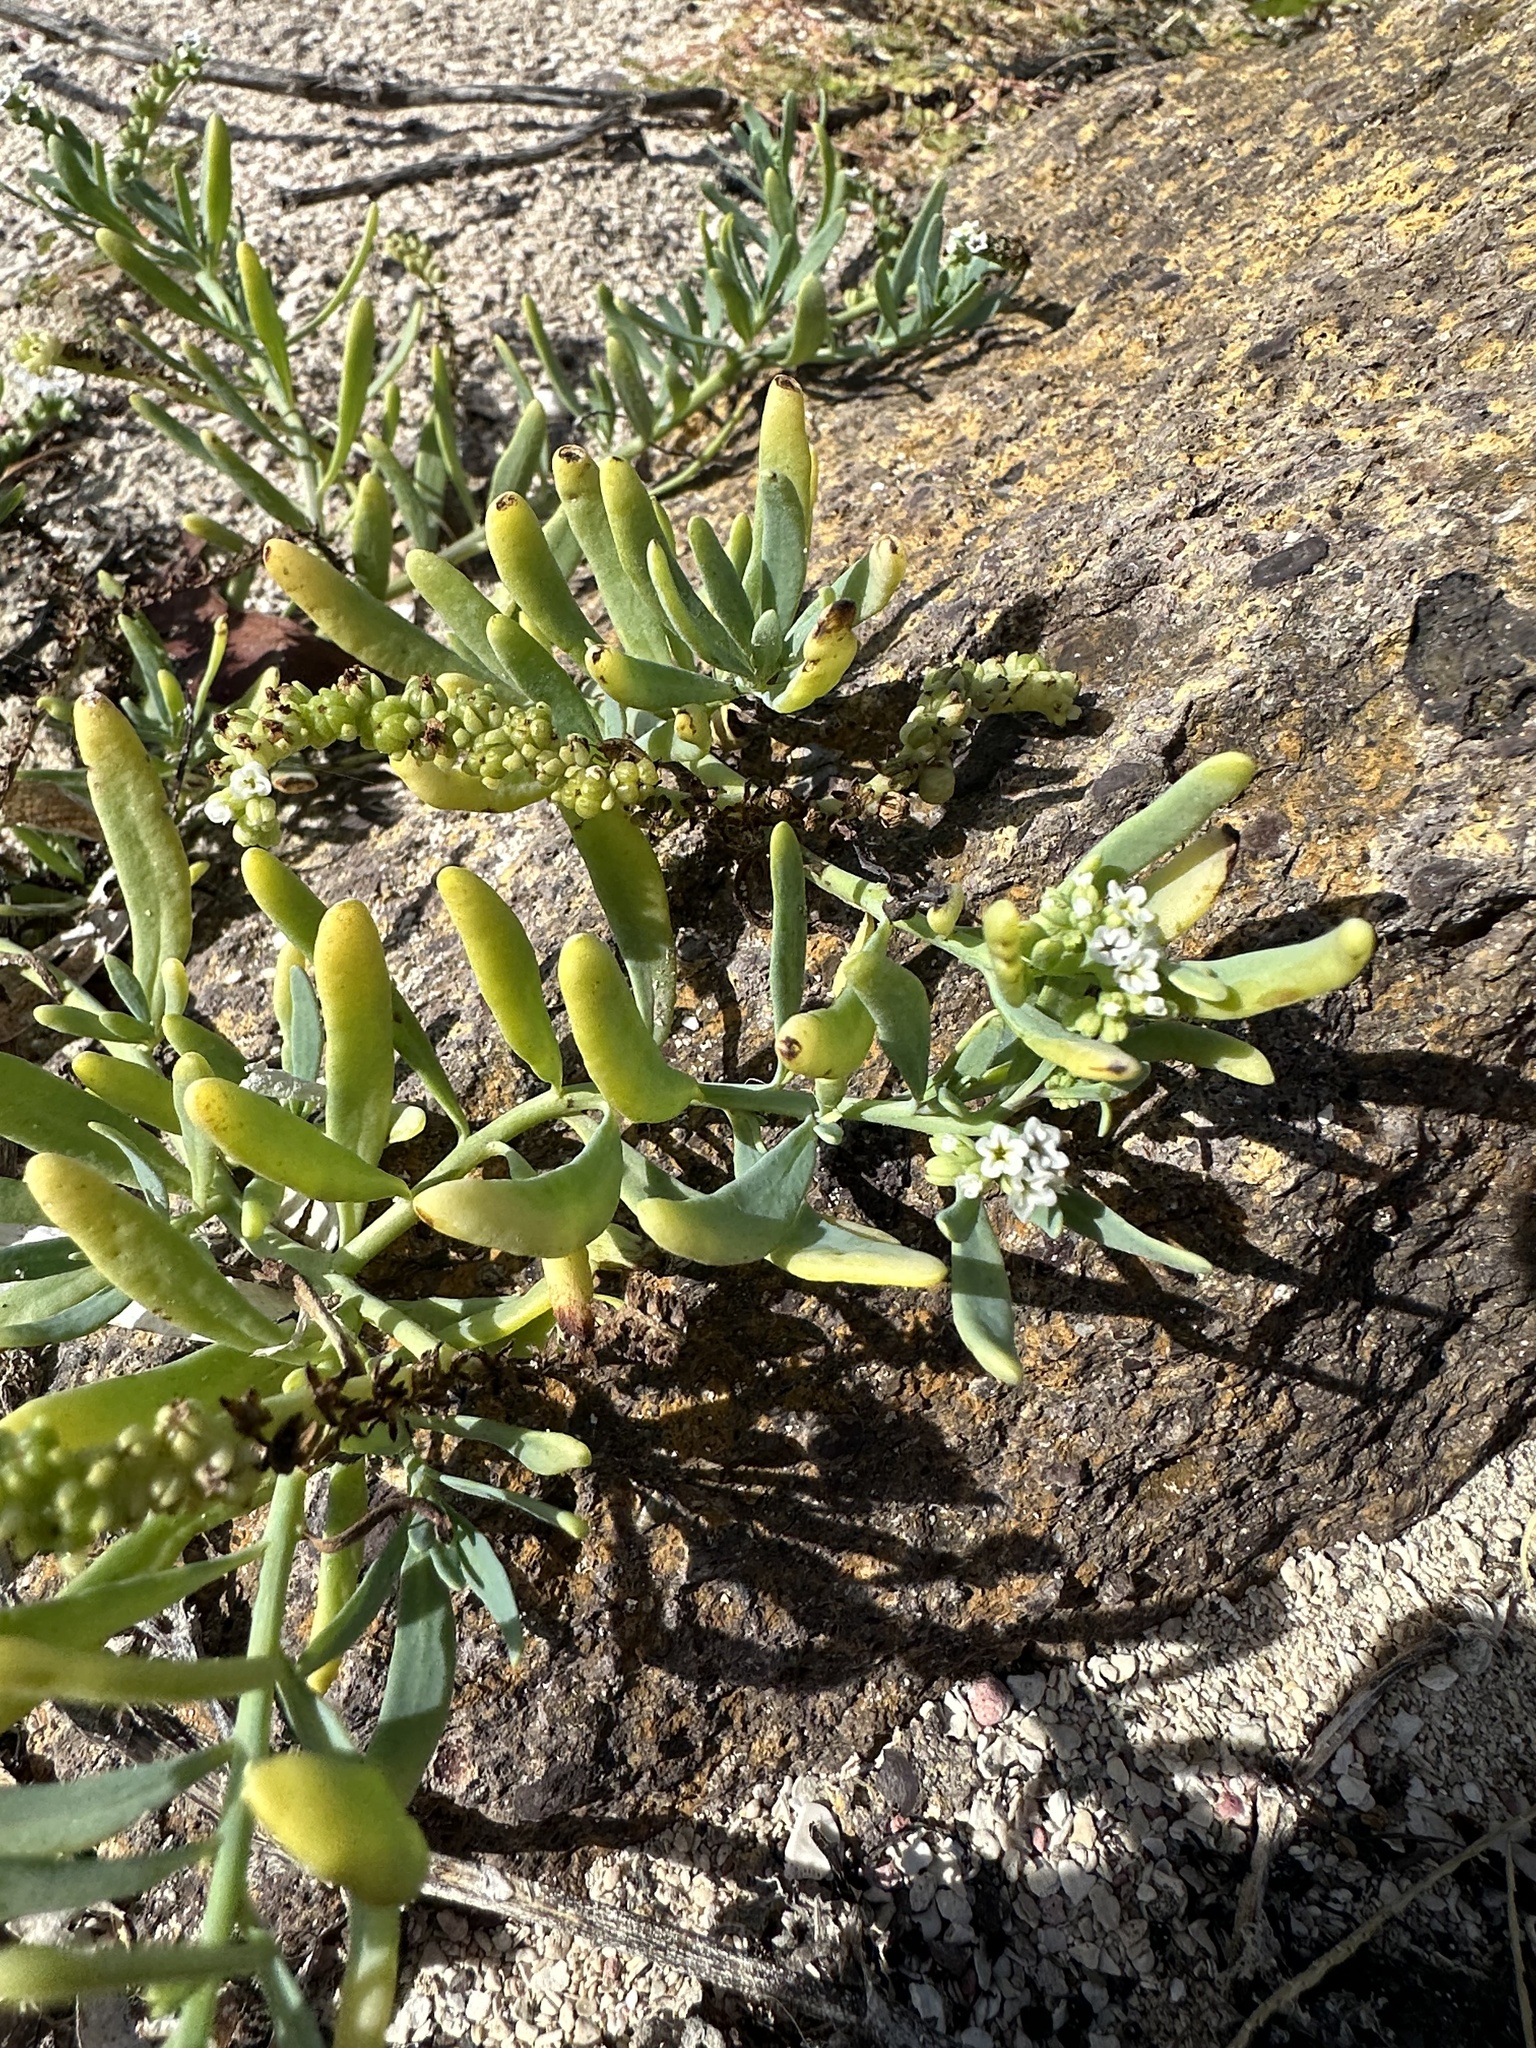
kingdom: Plantae
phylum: Tracheophyta
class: Magnoliopsida
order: Boraginales
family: Heliotropiaceae
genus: Heliotropium
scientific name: Heliotropium curassavicum
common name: Seaside heliotrope
